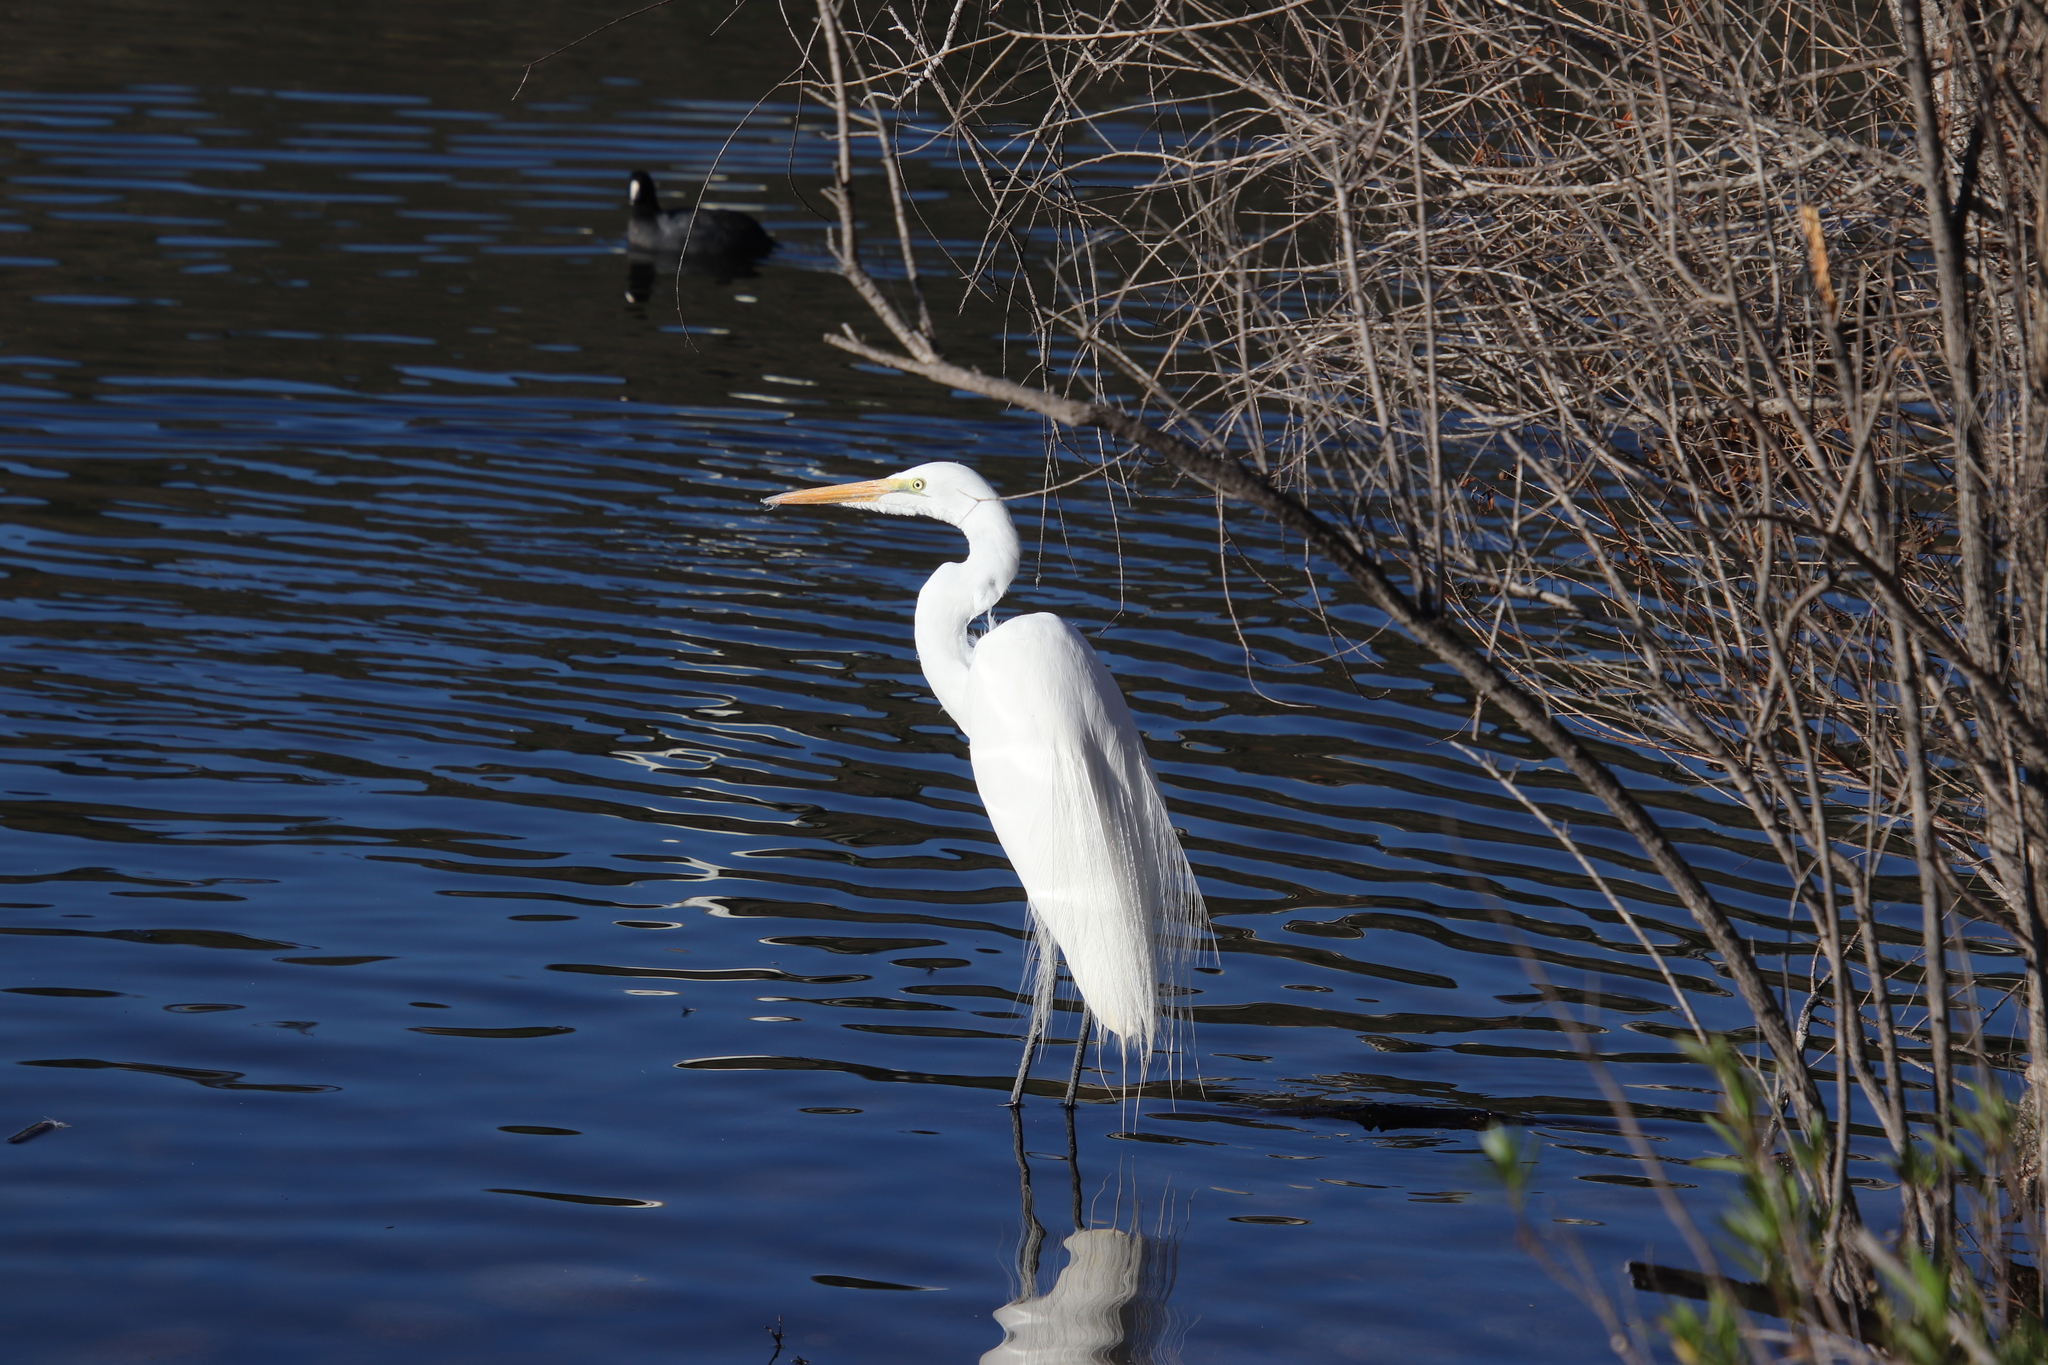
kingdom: Animalia
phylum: Chordata
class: Aves
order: Pelecaniformes
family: Ardeidae
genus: Ardea
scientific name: Ardea alba
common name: Great egret
